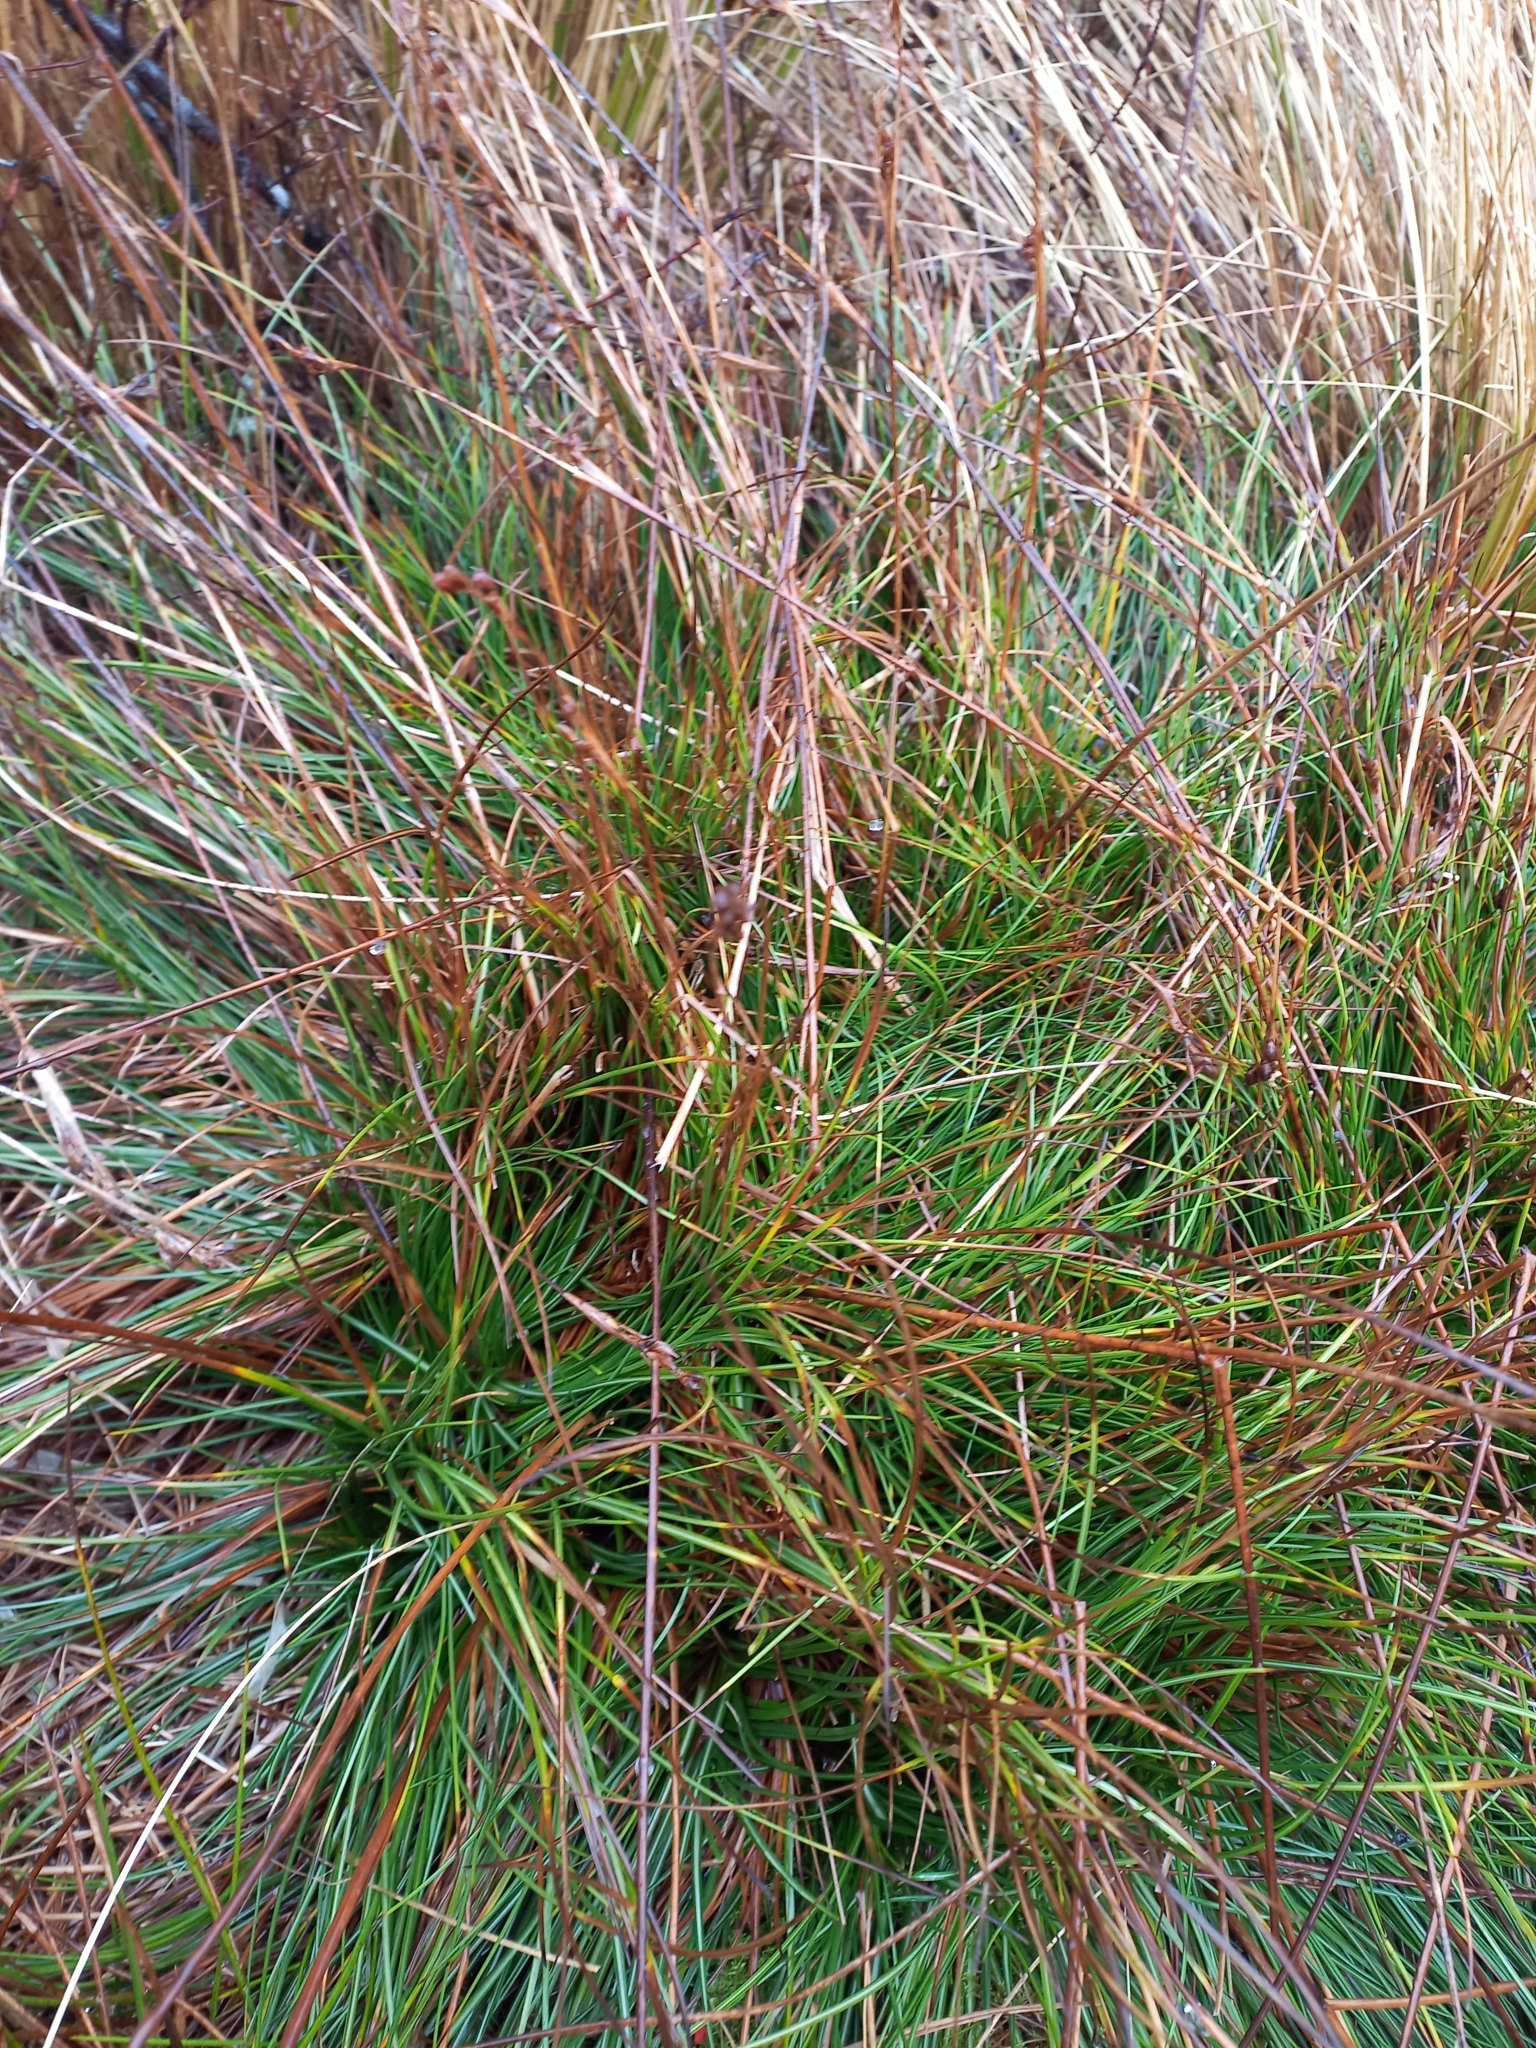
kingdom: Plantae
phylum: Tracheophyta
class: Liliopsida
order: Poales
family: Juncaceae
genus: Juncus
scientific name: Juncus squarrosus
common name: Heath rush
